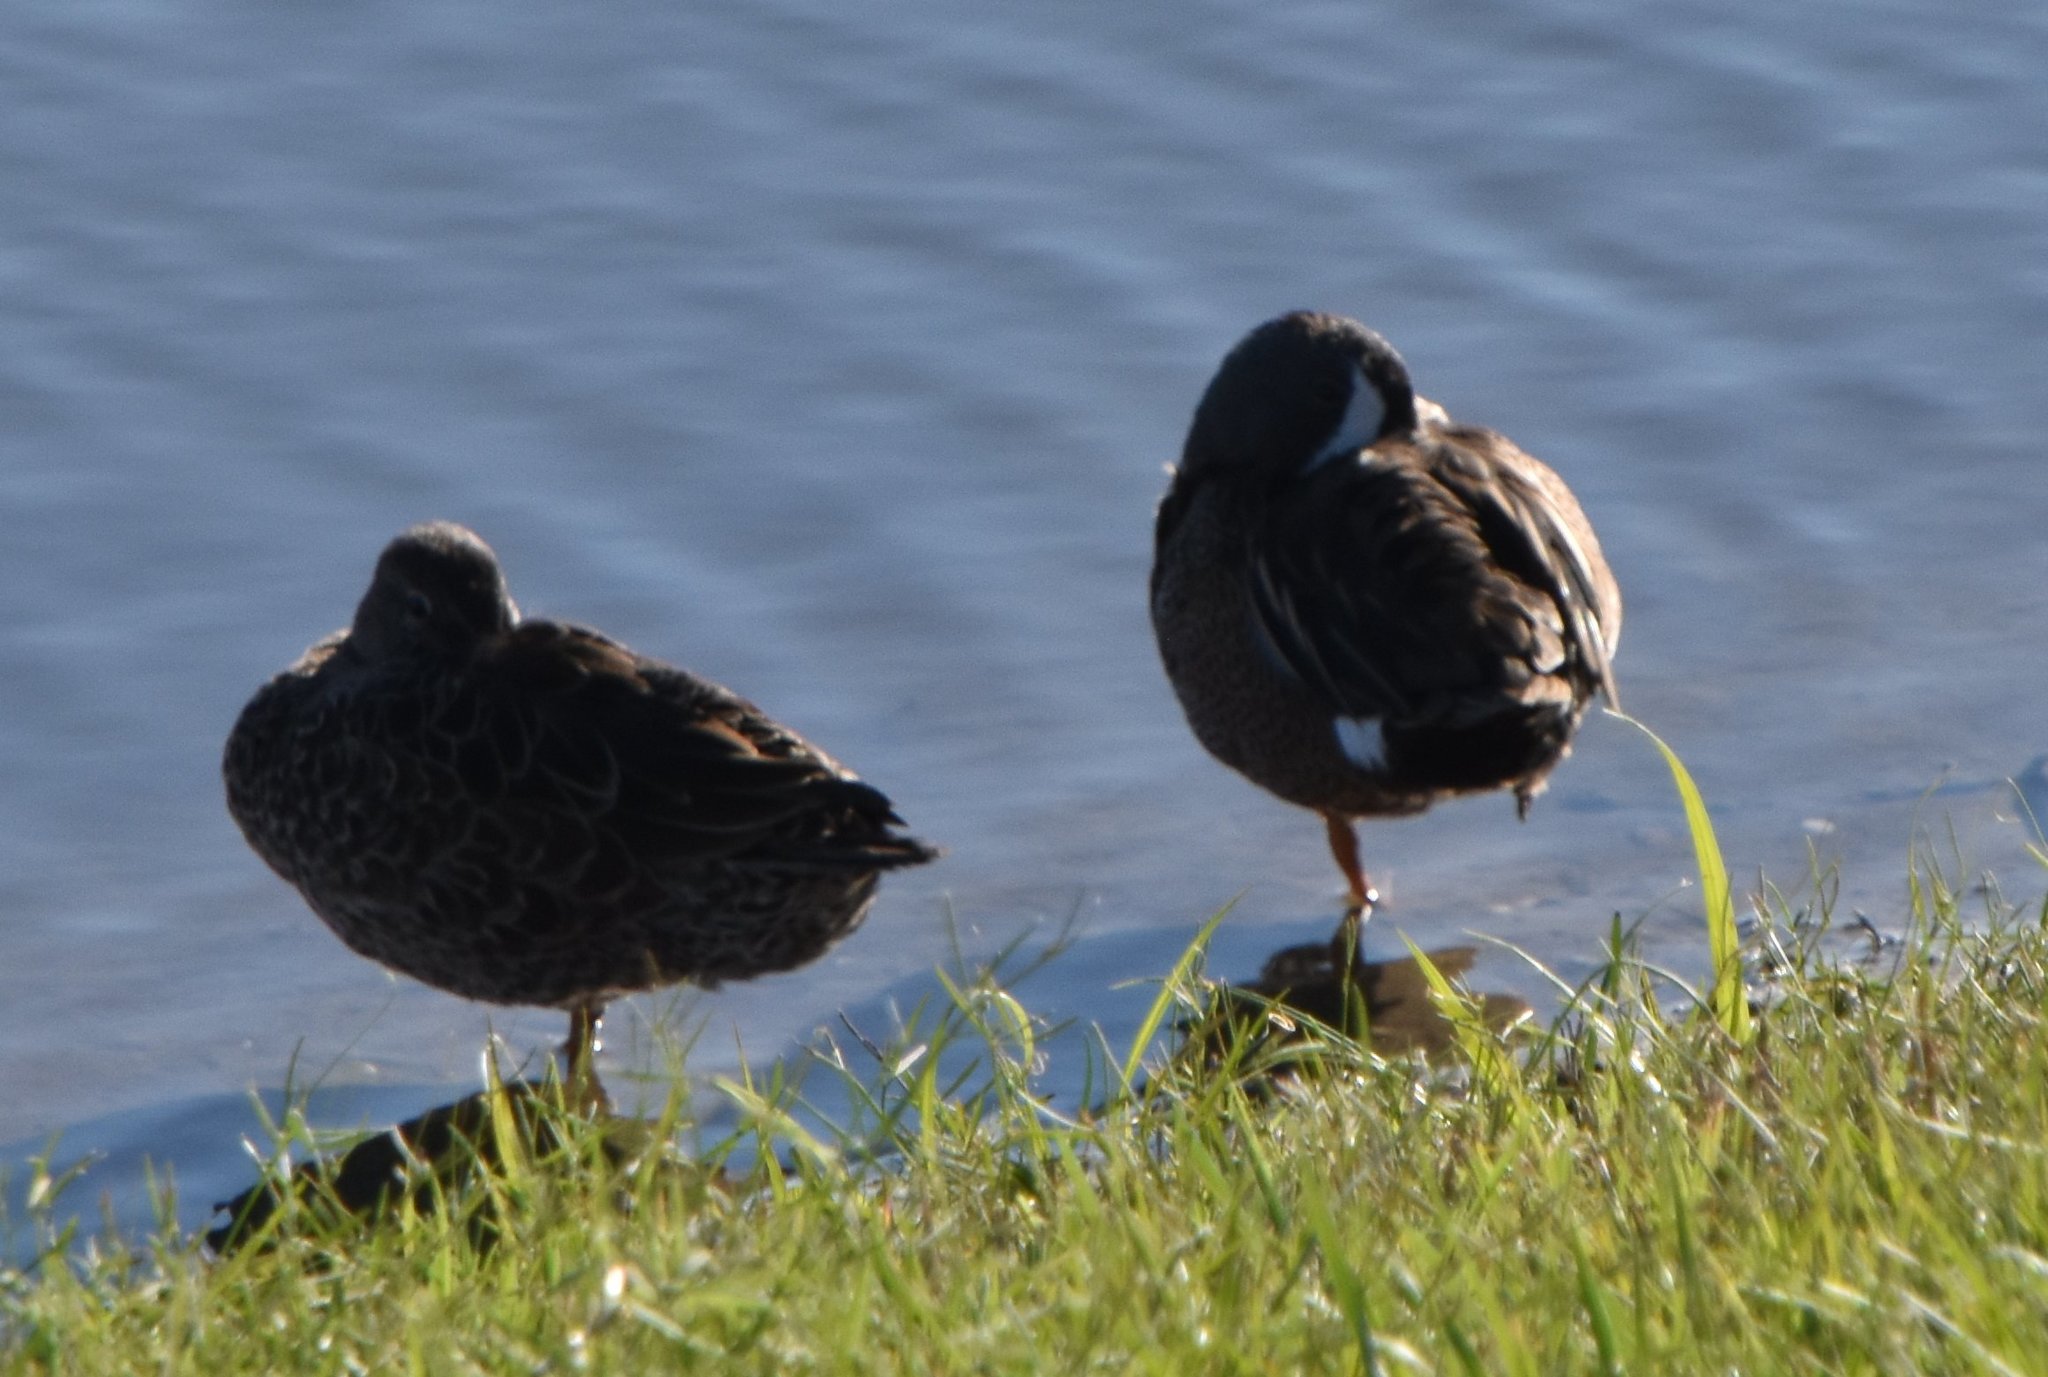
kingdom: Animalia
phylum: Chordata
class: Aves
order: Anseriformes
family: Anatidae
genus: Spatula
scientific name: Spatula discors
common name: Blue-winged teal
